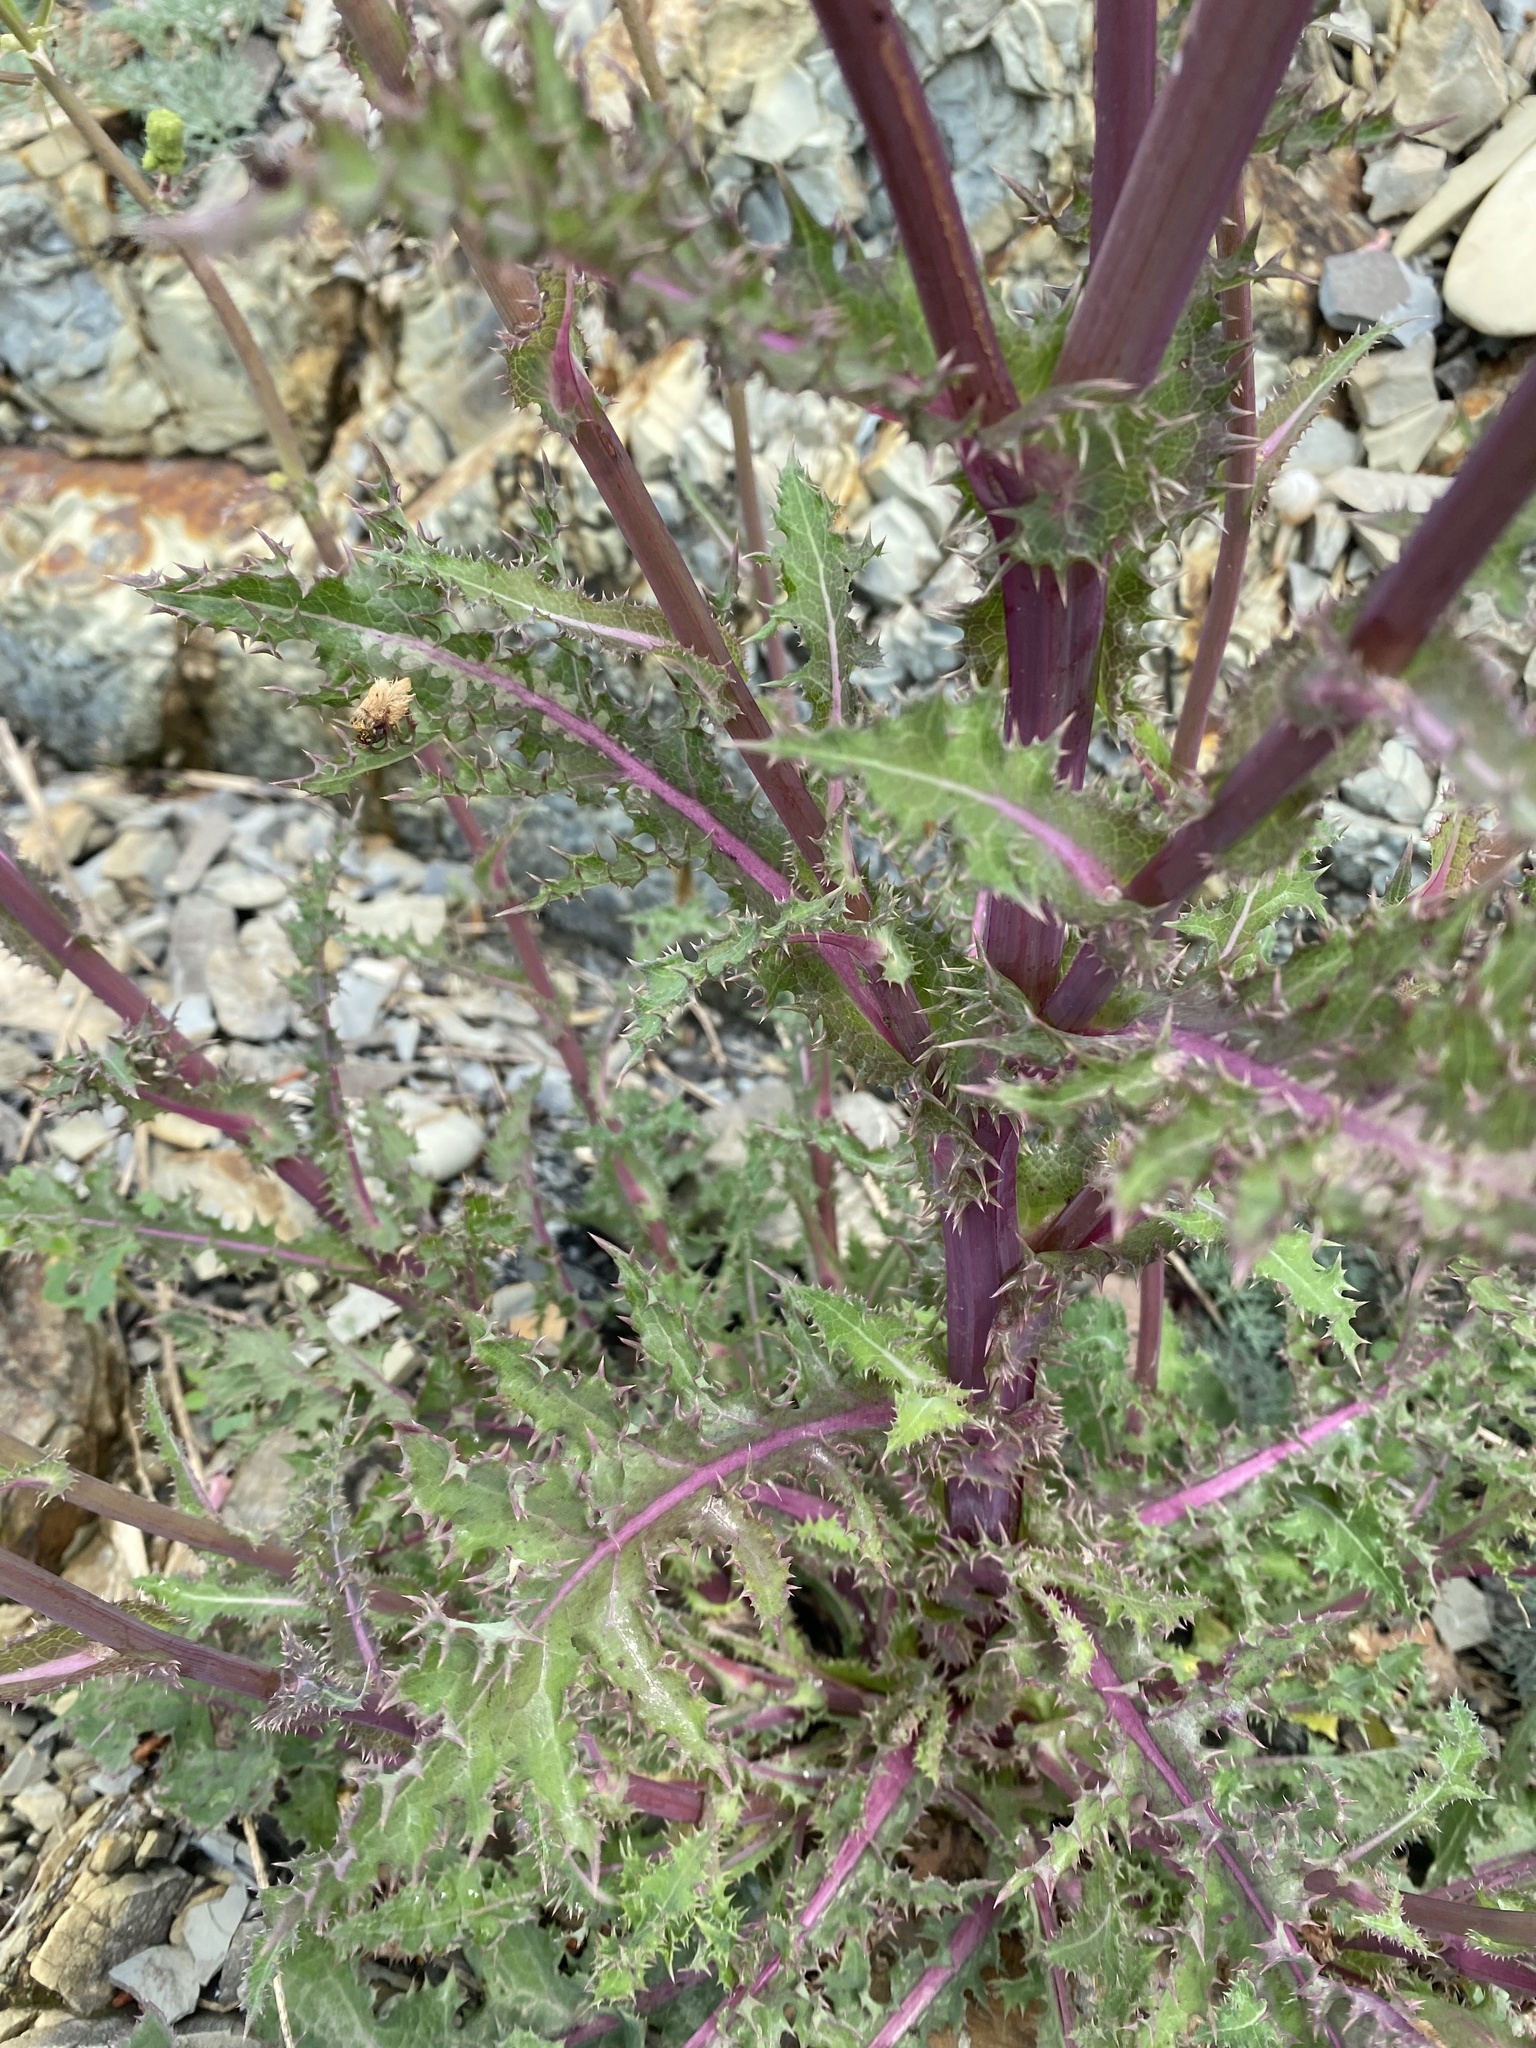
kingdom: Plantae
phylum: Tracheophyta
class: Magnoliopsida
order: Asterales
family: Asteraceae
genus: Sonchus
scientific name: Sonchus asper
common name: Prickly sow-thistle
